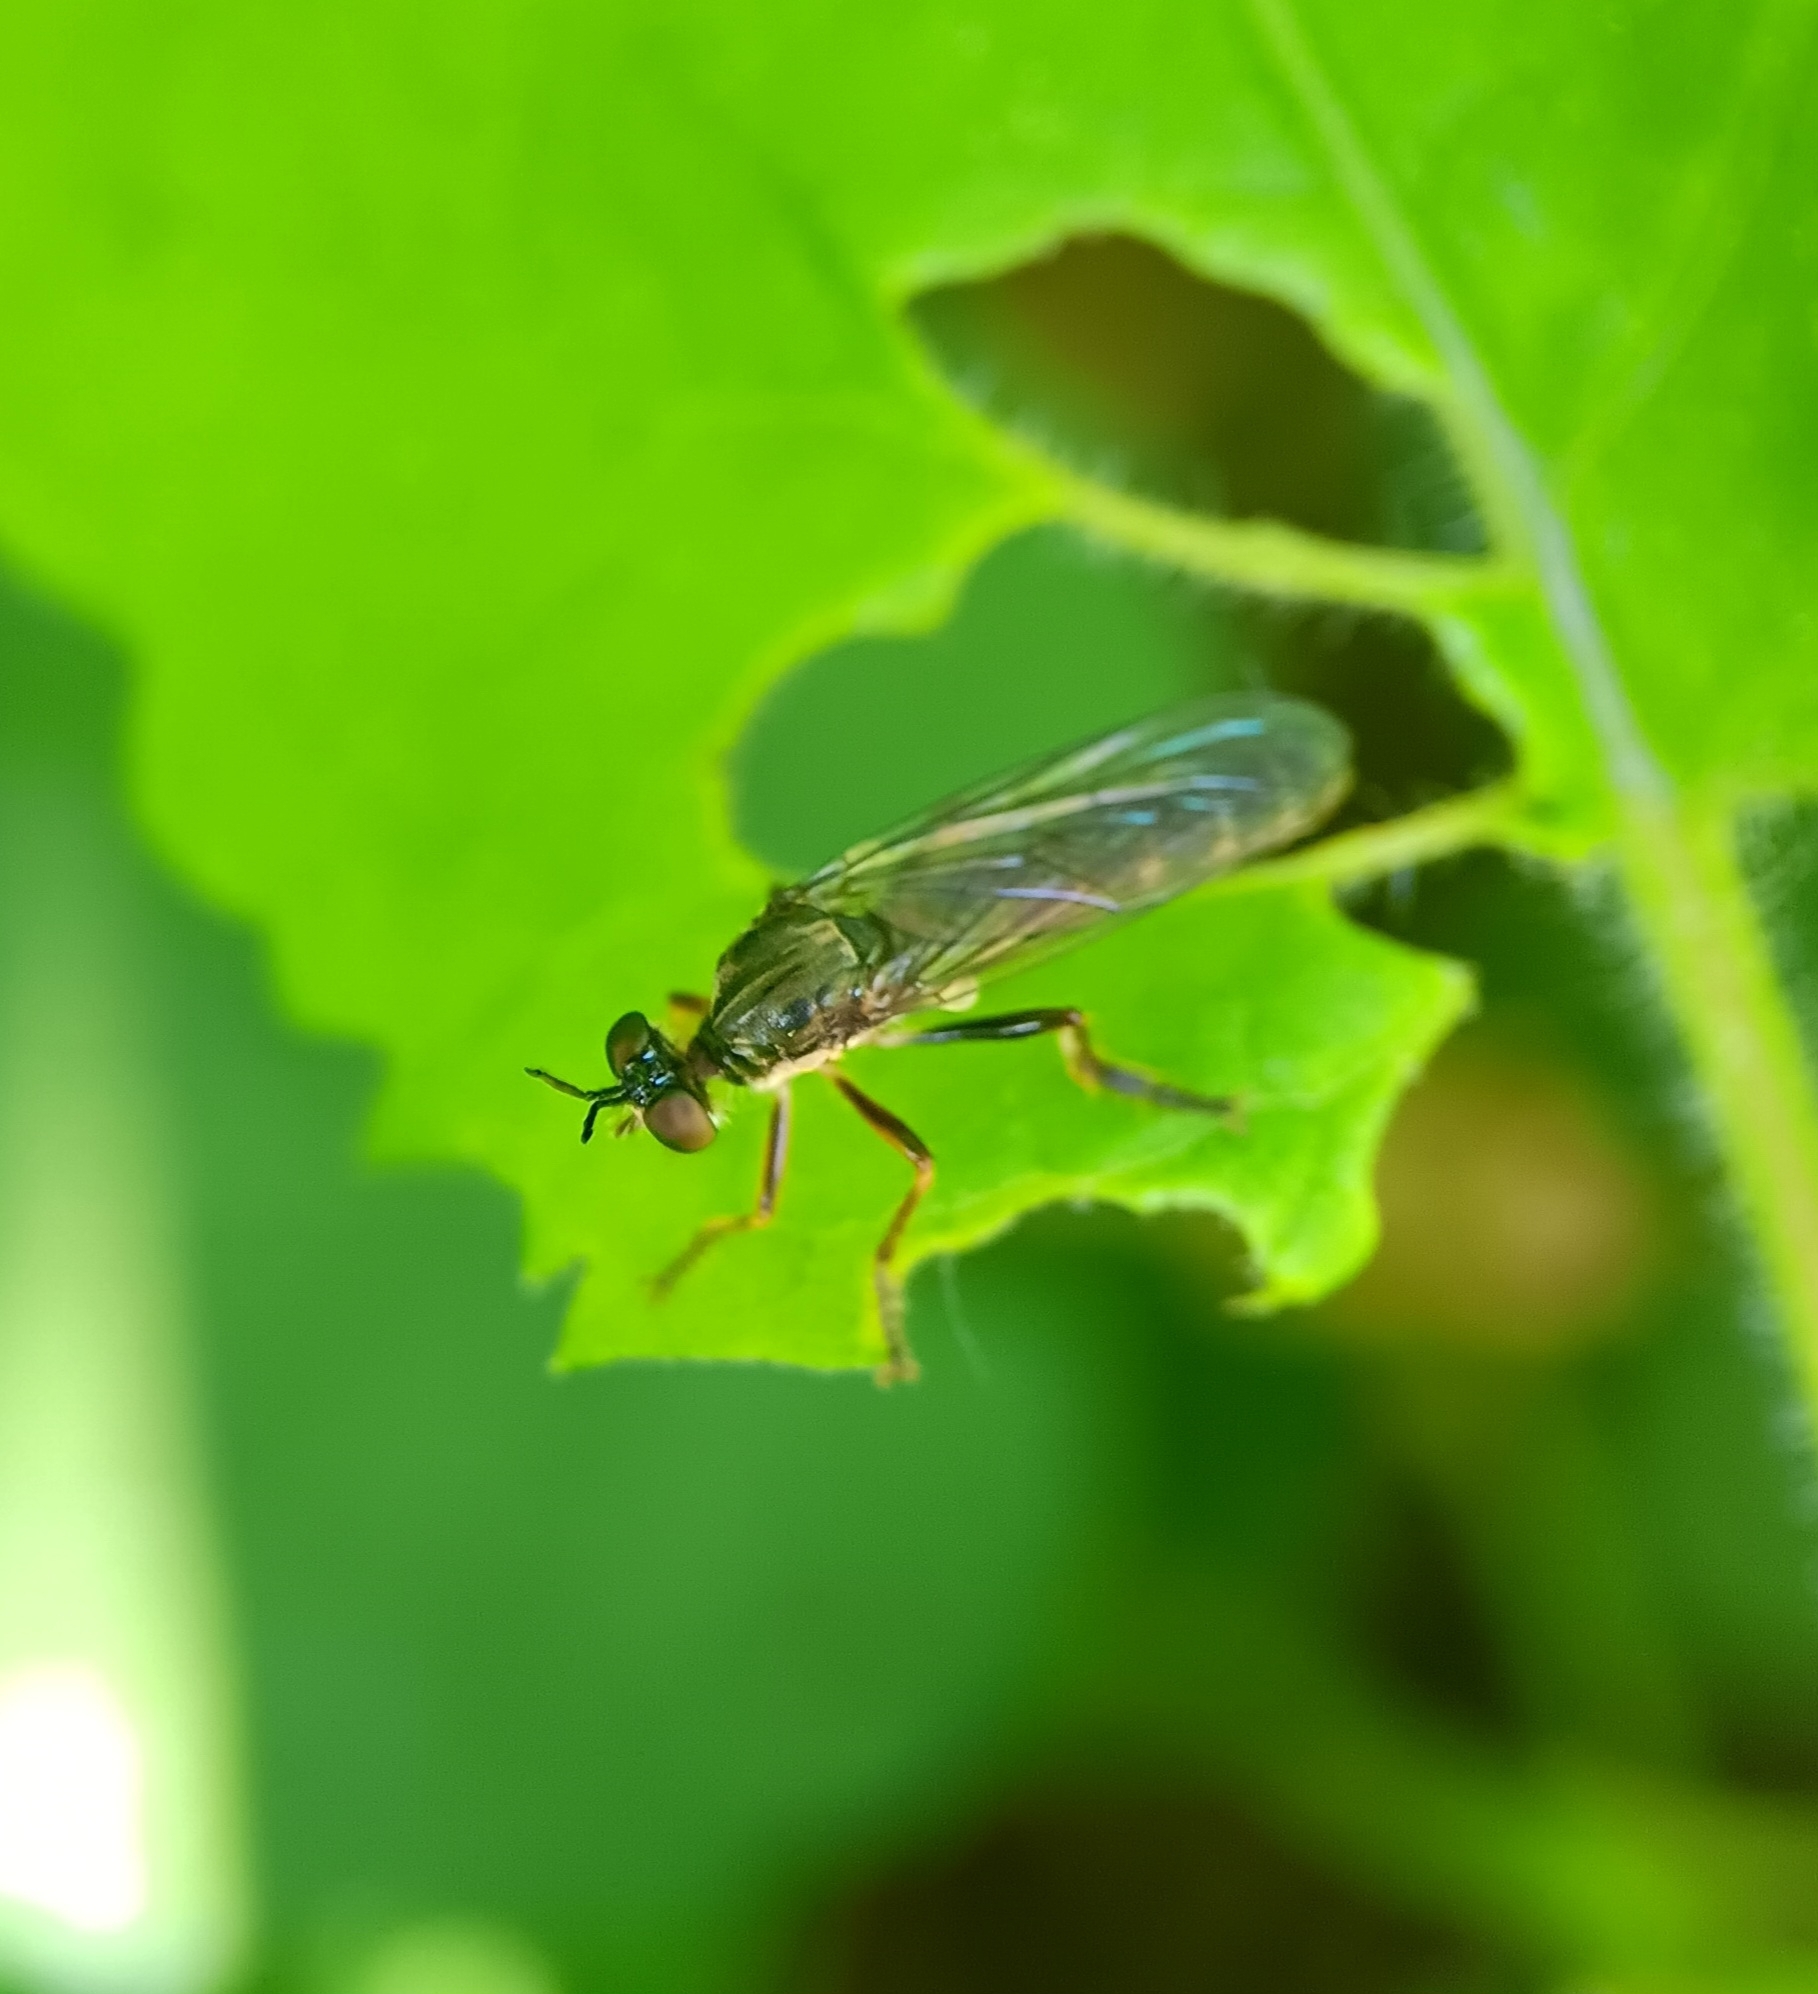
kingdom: Animalia
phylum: Arthropoda
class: Insecta
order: Diptera
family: Asilidae
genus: Dioctria
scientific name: Dioctria hyalipennis
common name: Stripe-legged robberfly
